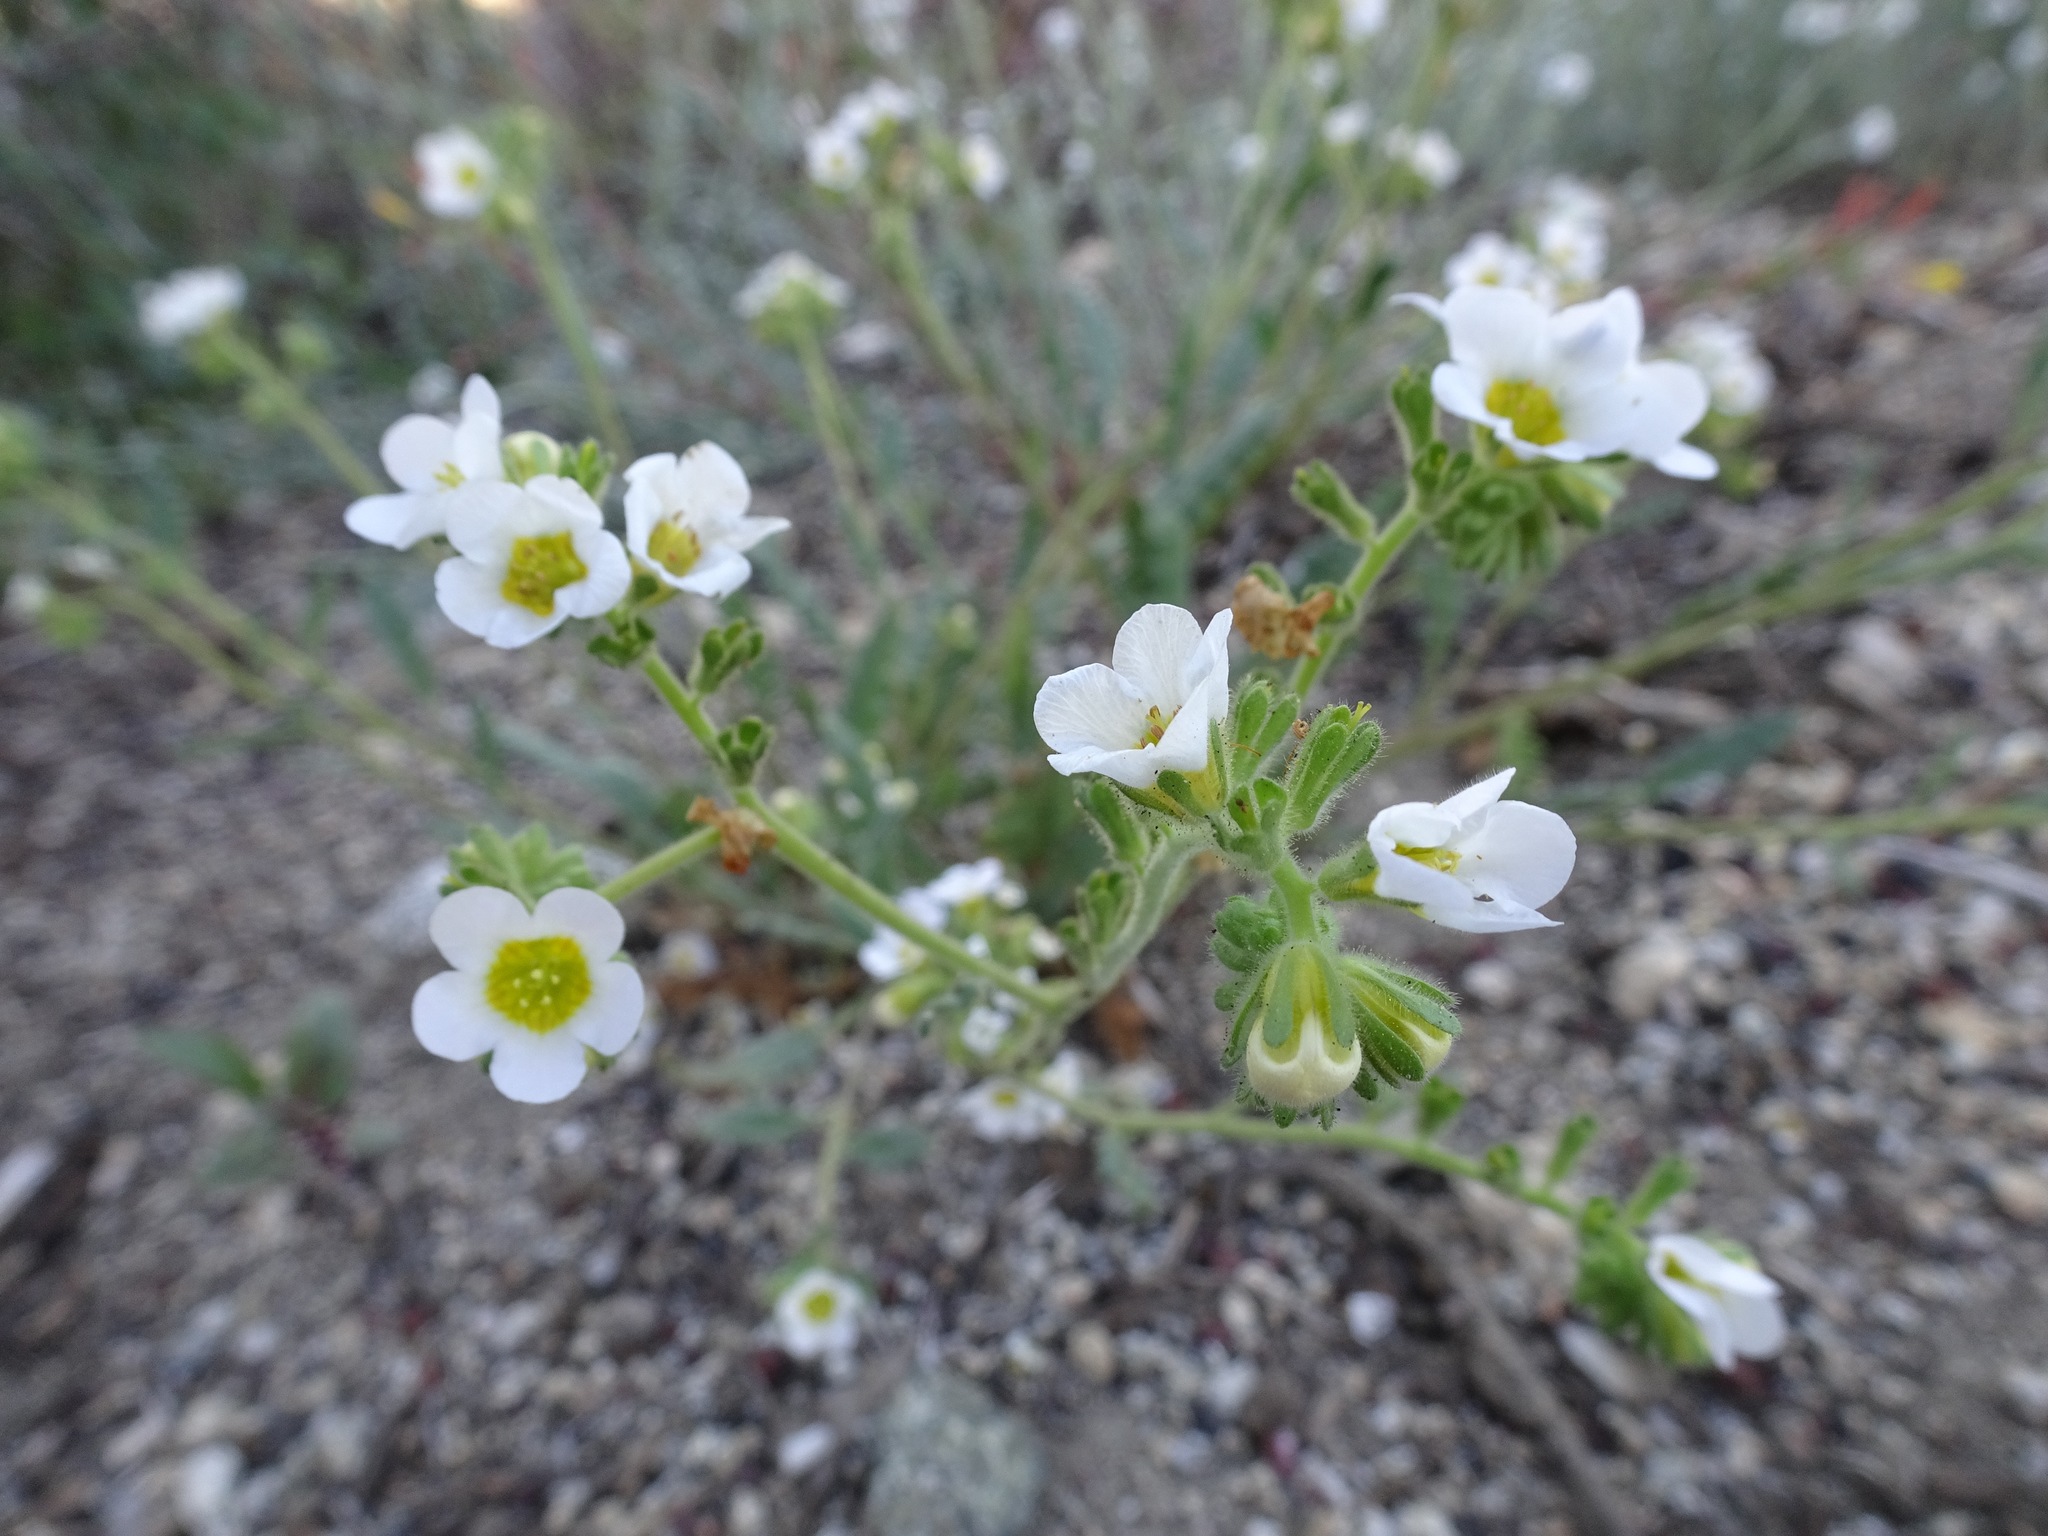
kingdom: Plantae
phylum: Tracheophyta
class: Magnoliopsida
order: Boraginales
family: Hydrophyllaceae
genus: Phacelia
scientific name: Phacelia brachyloba
